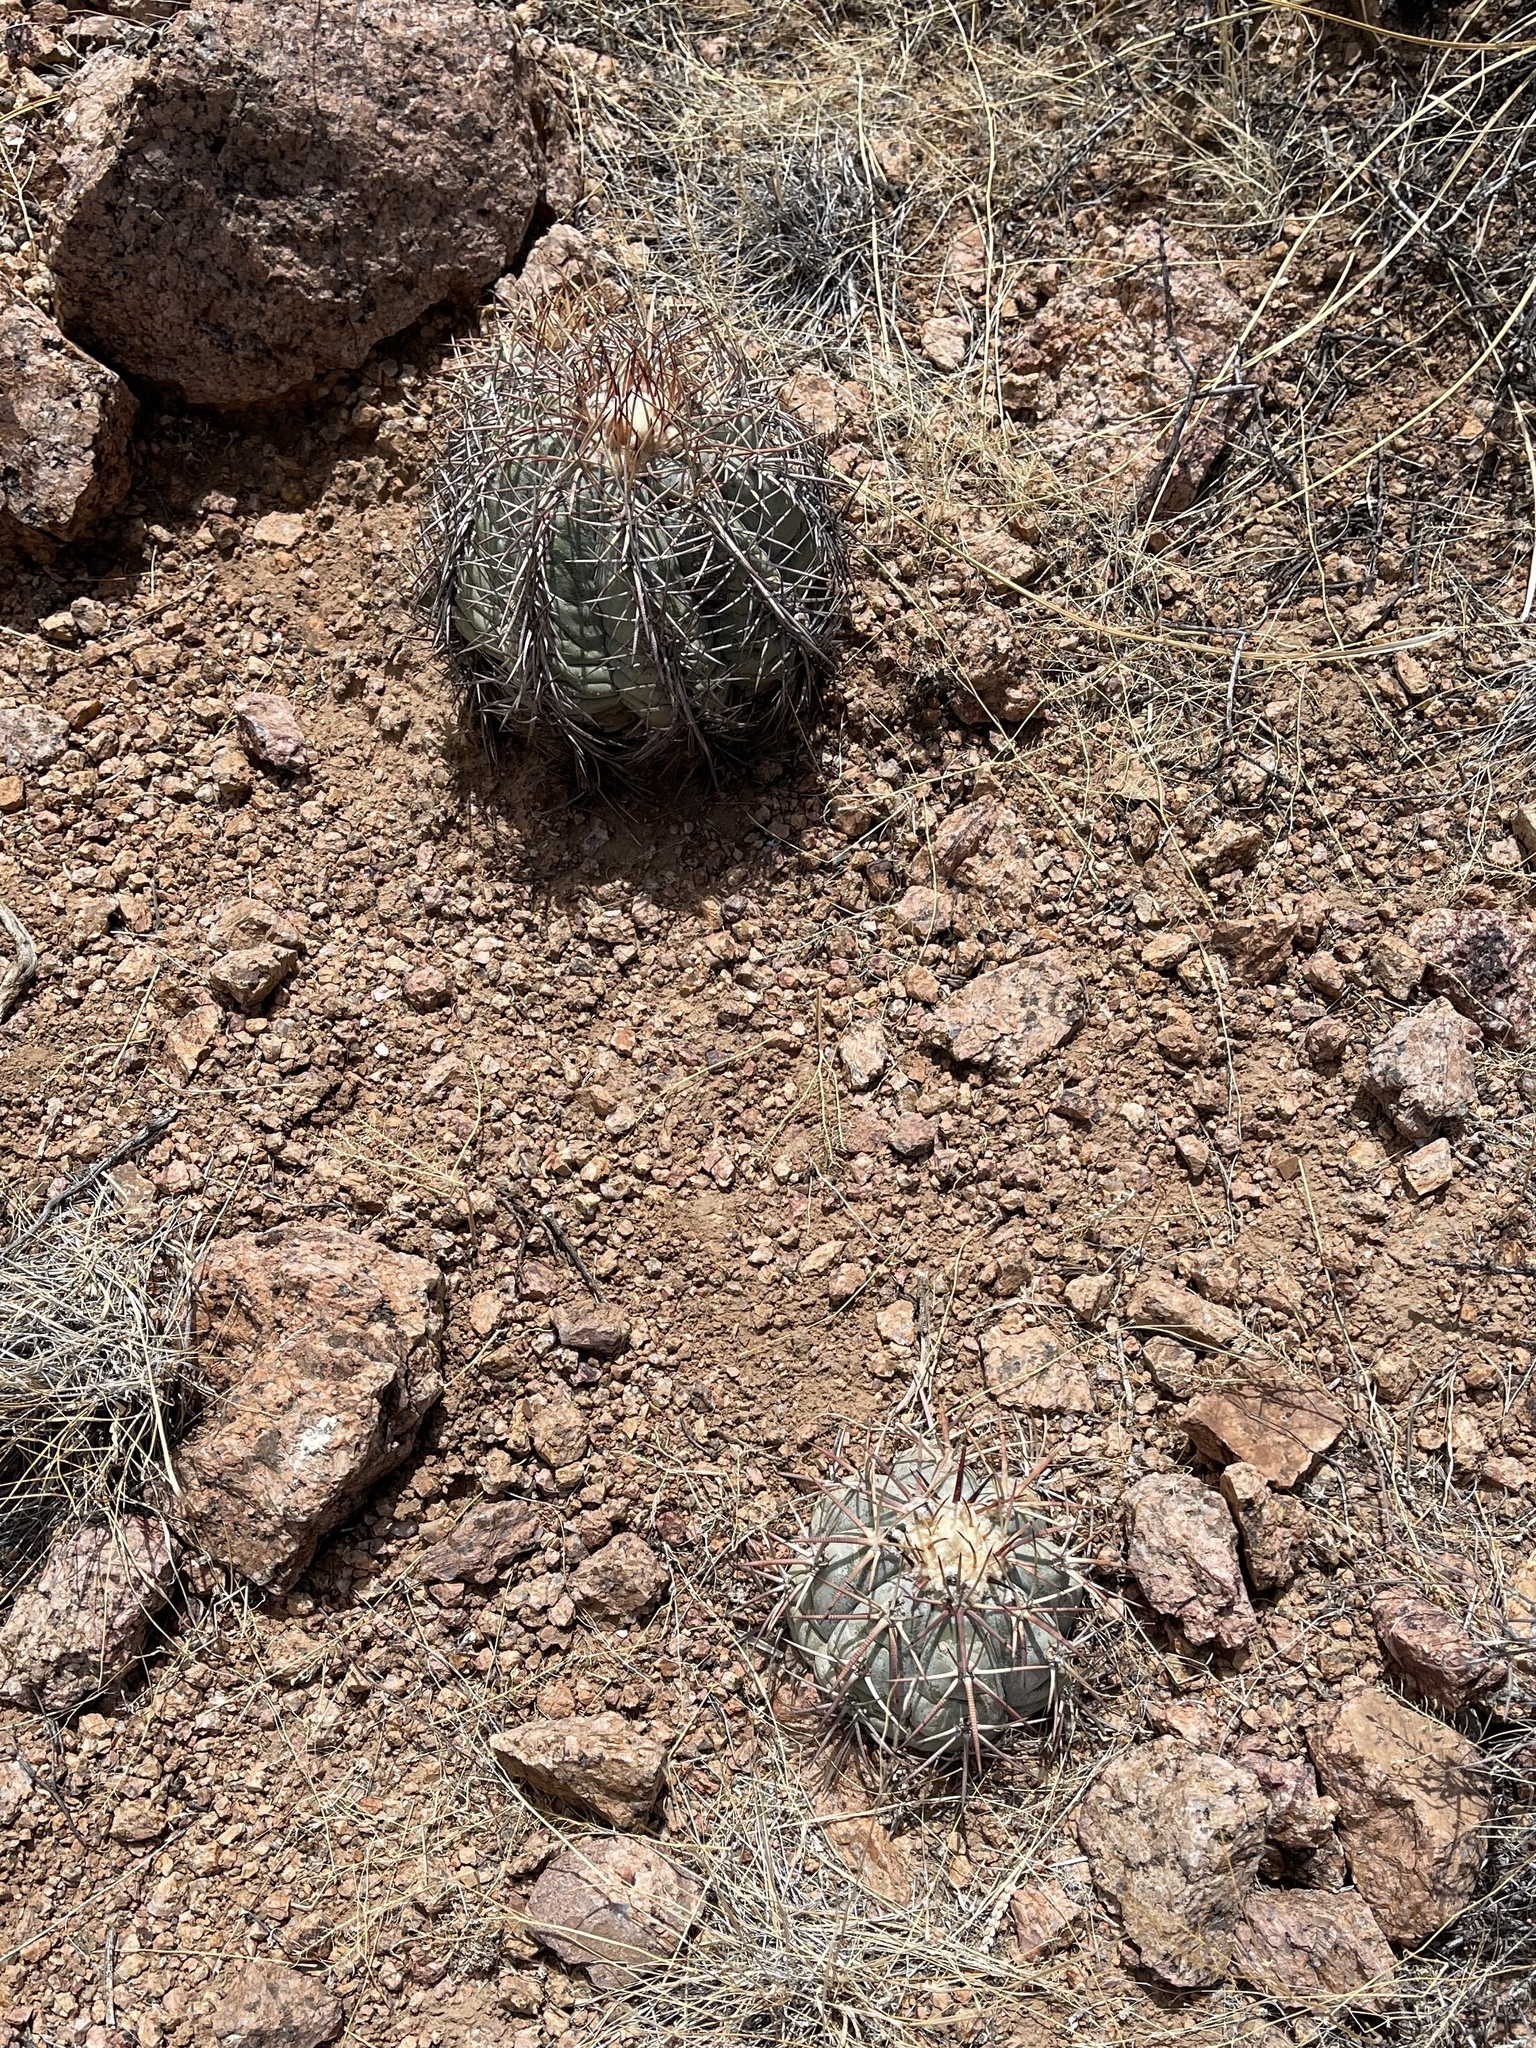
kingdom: Plantae
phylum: Tracheophyta
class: Magnoliopsida
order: Caryophyllales
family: Cactaceae
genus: Echinocactus
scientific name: Echinocactus horizonthalonius
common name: Devilshead
